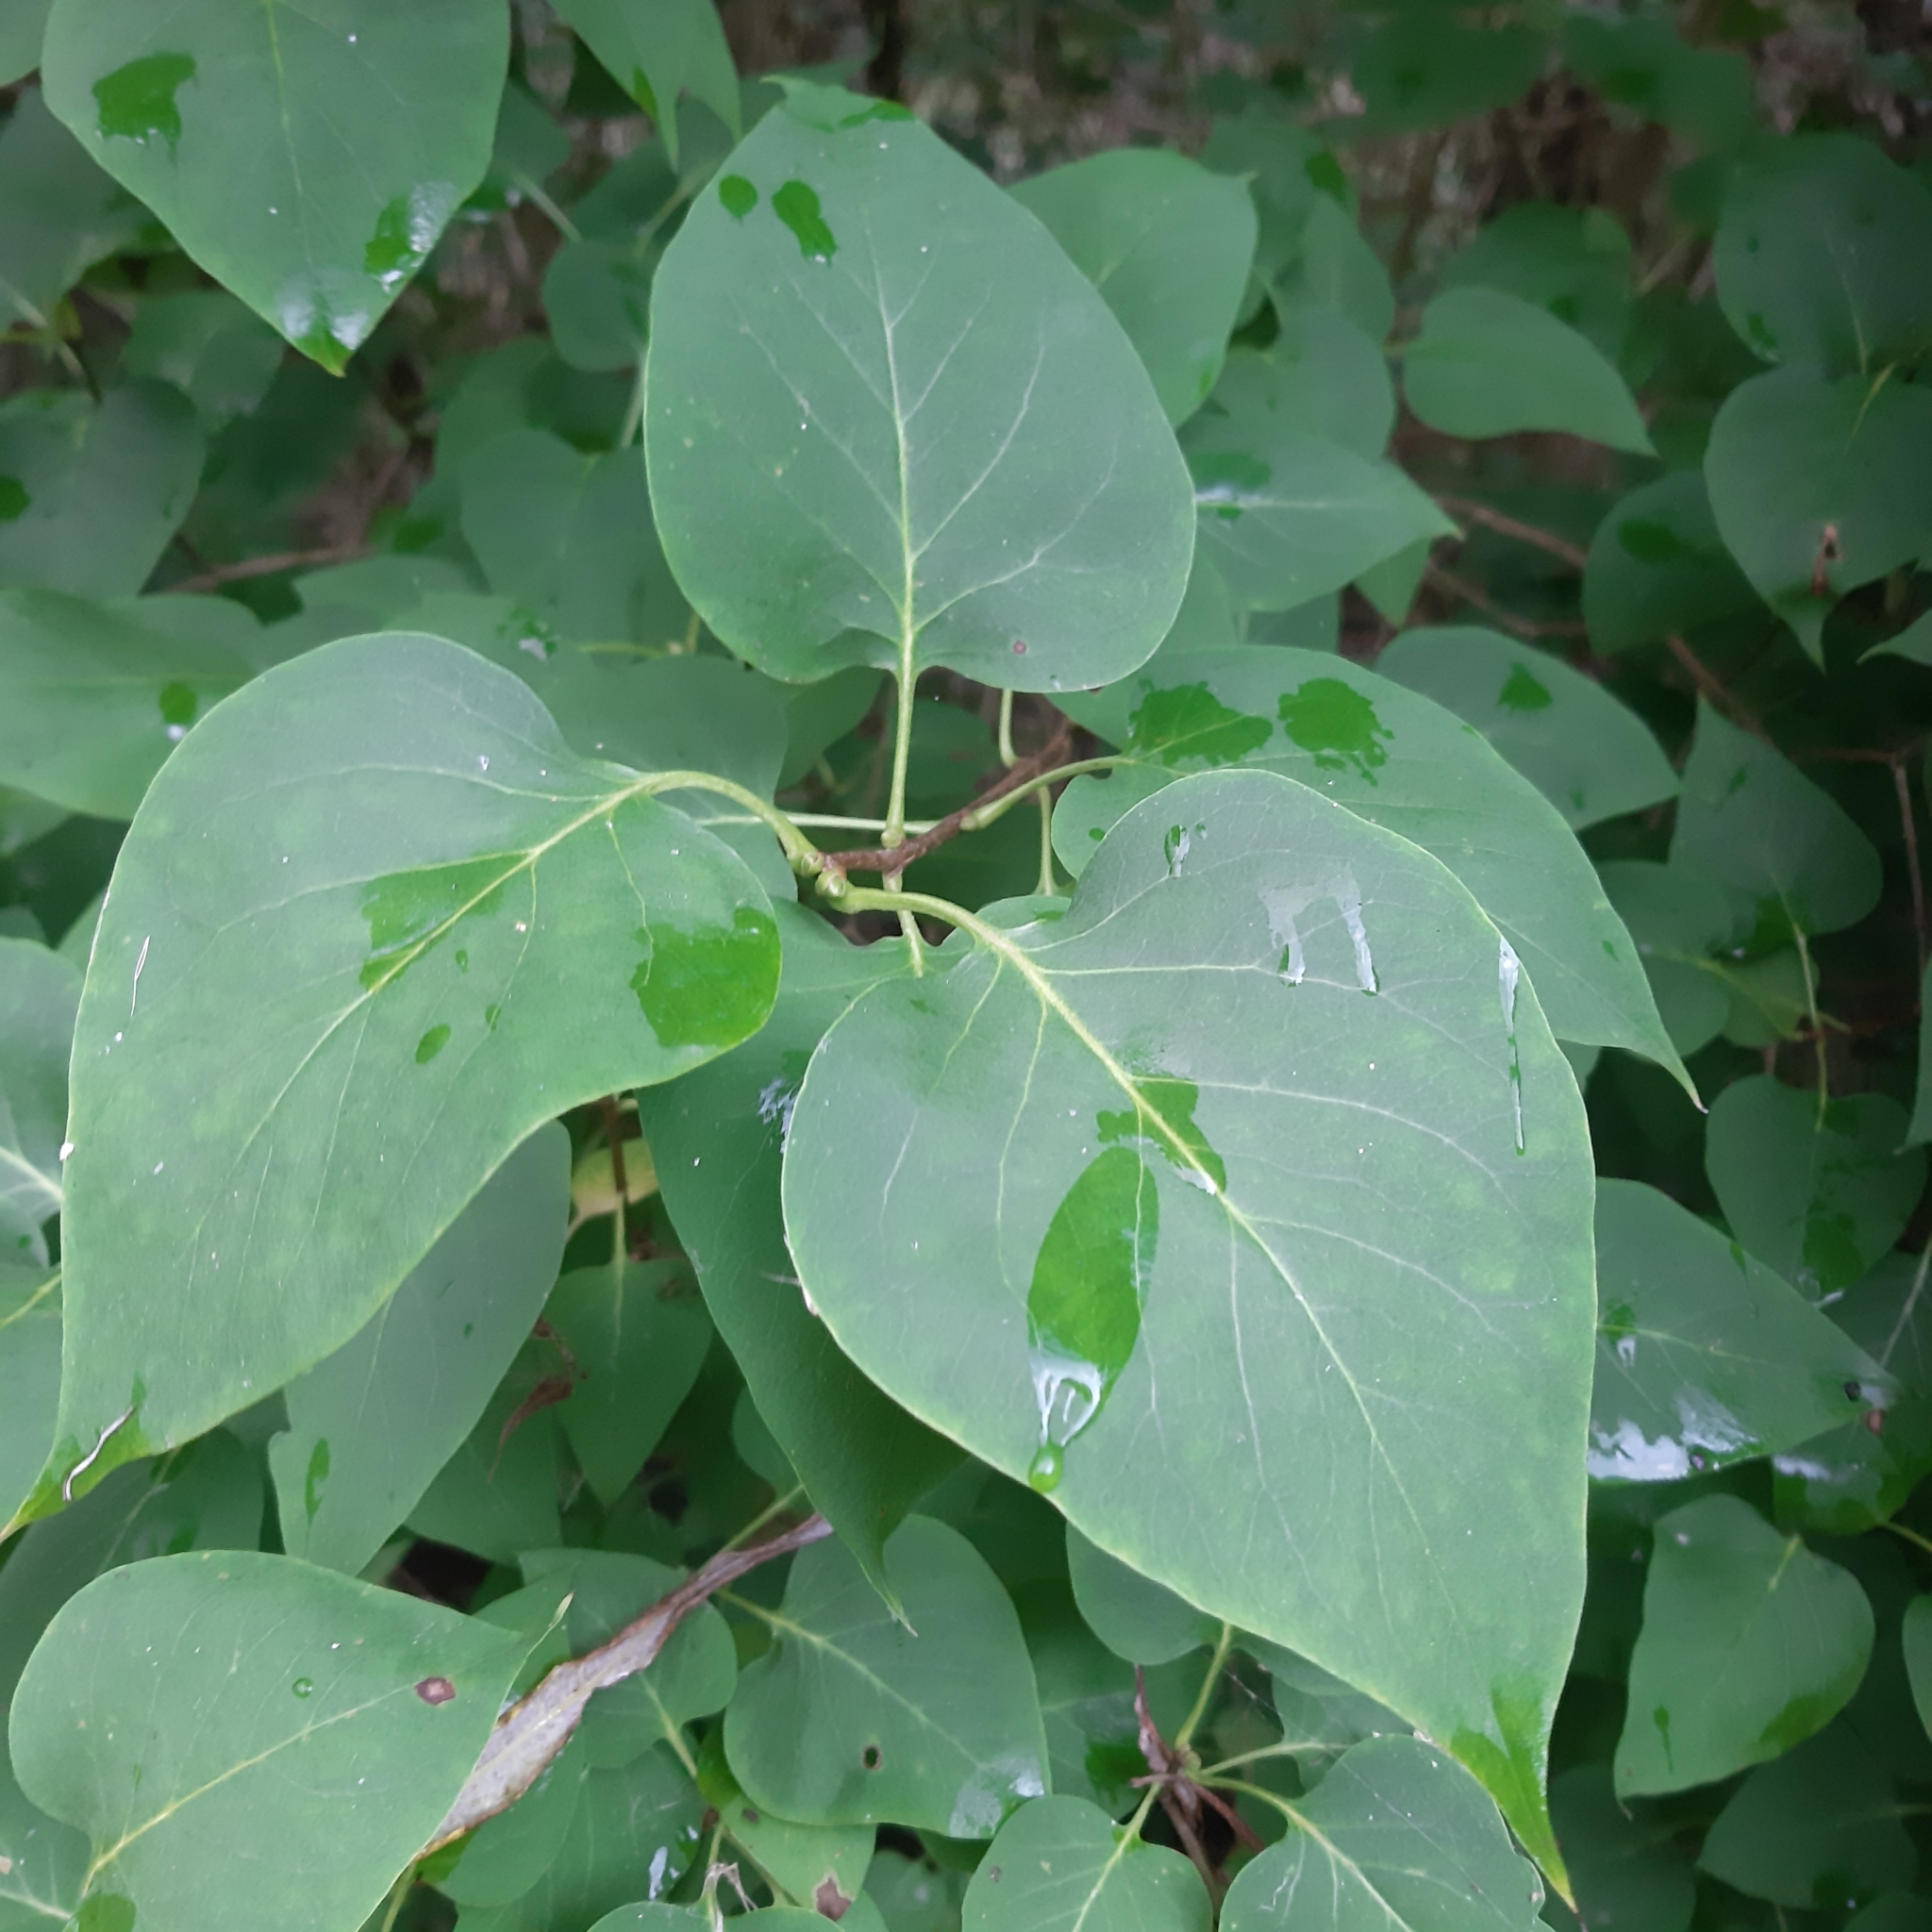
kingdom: Plantae
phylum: Tracheophyta
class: Magnoliopsida
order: Lamiales
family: Oleaceae
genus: Syringa
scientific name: Syringa vulgaris
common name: Common lilac
